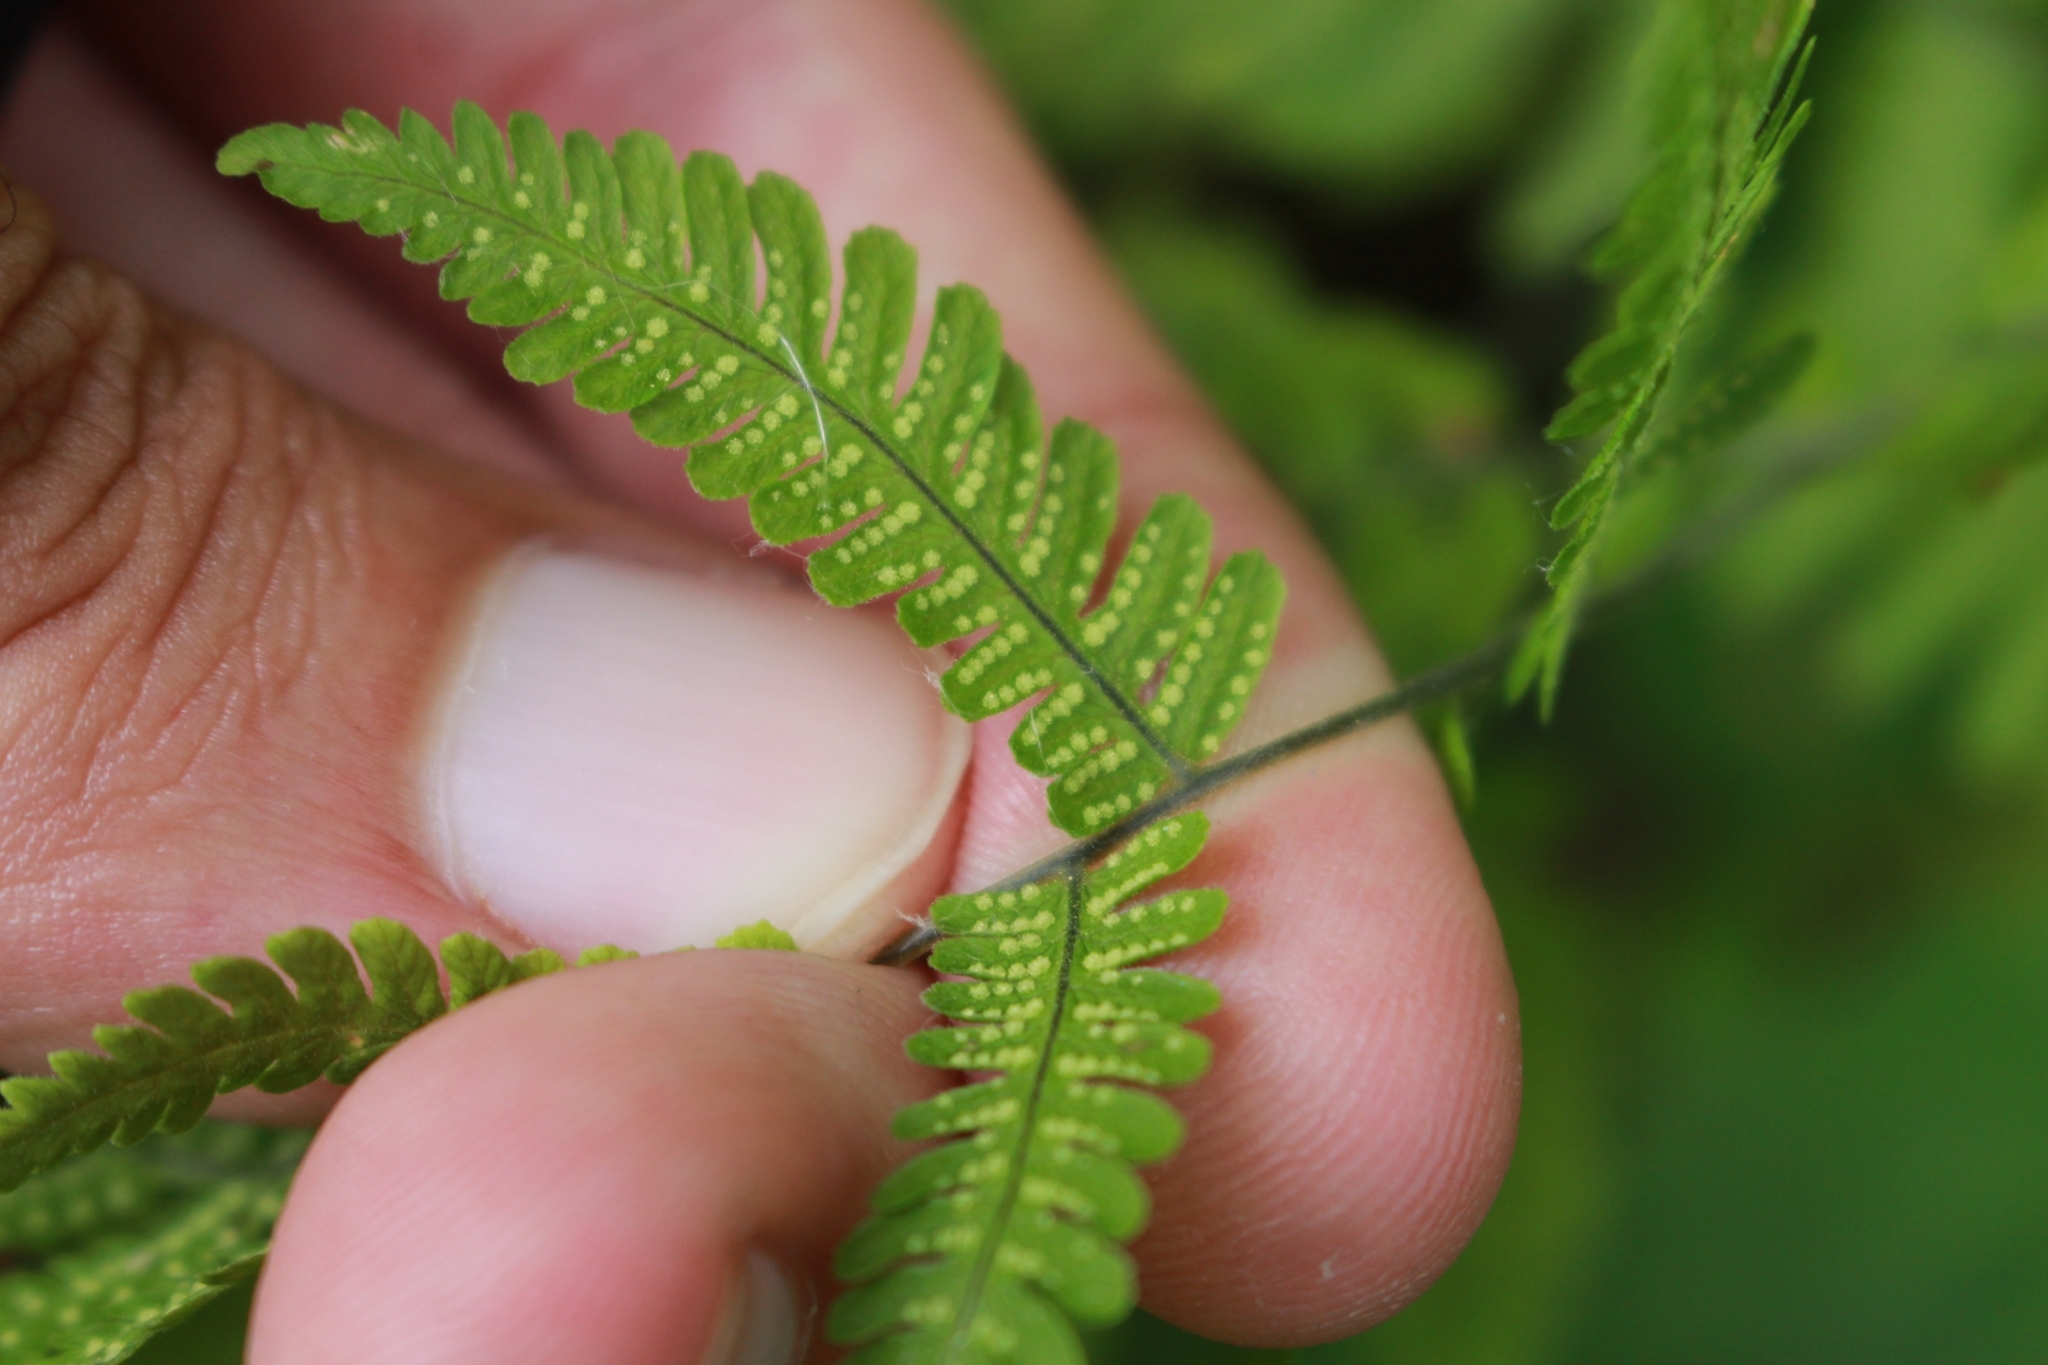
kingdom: Plantae
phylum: Tracheophyta
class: Polypodiopsida
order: Polypodiales
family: Cystopteridaceae
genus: Gymnocarpium
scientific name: Gymnocarpium robertianum
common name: Limestone fern
